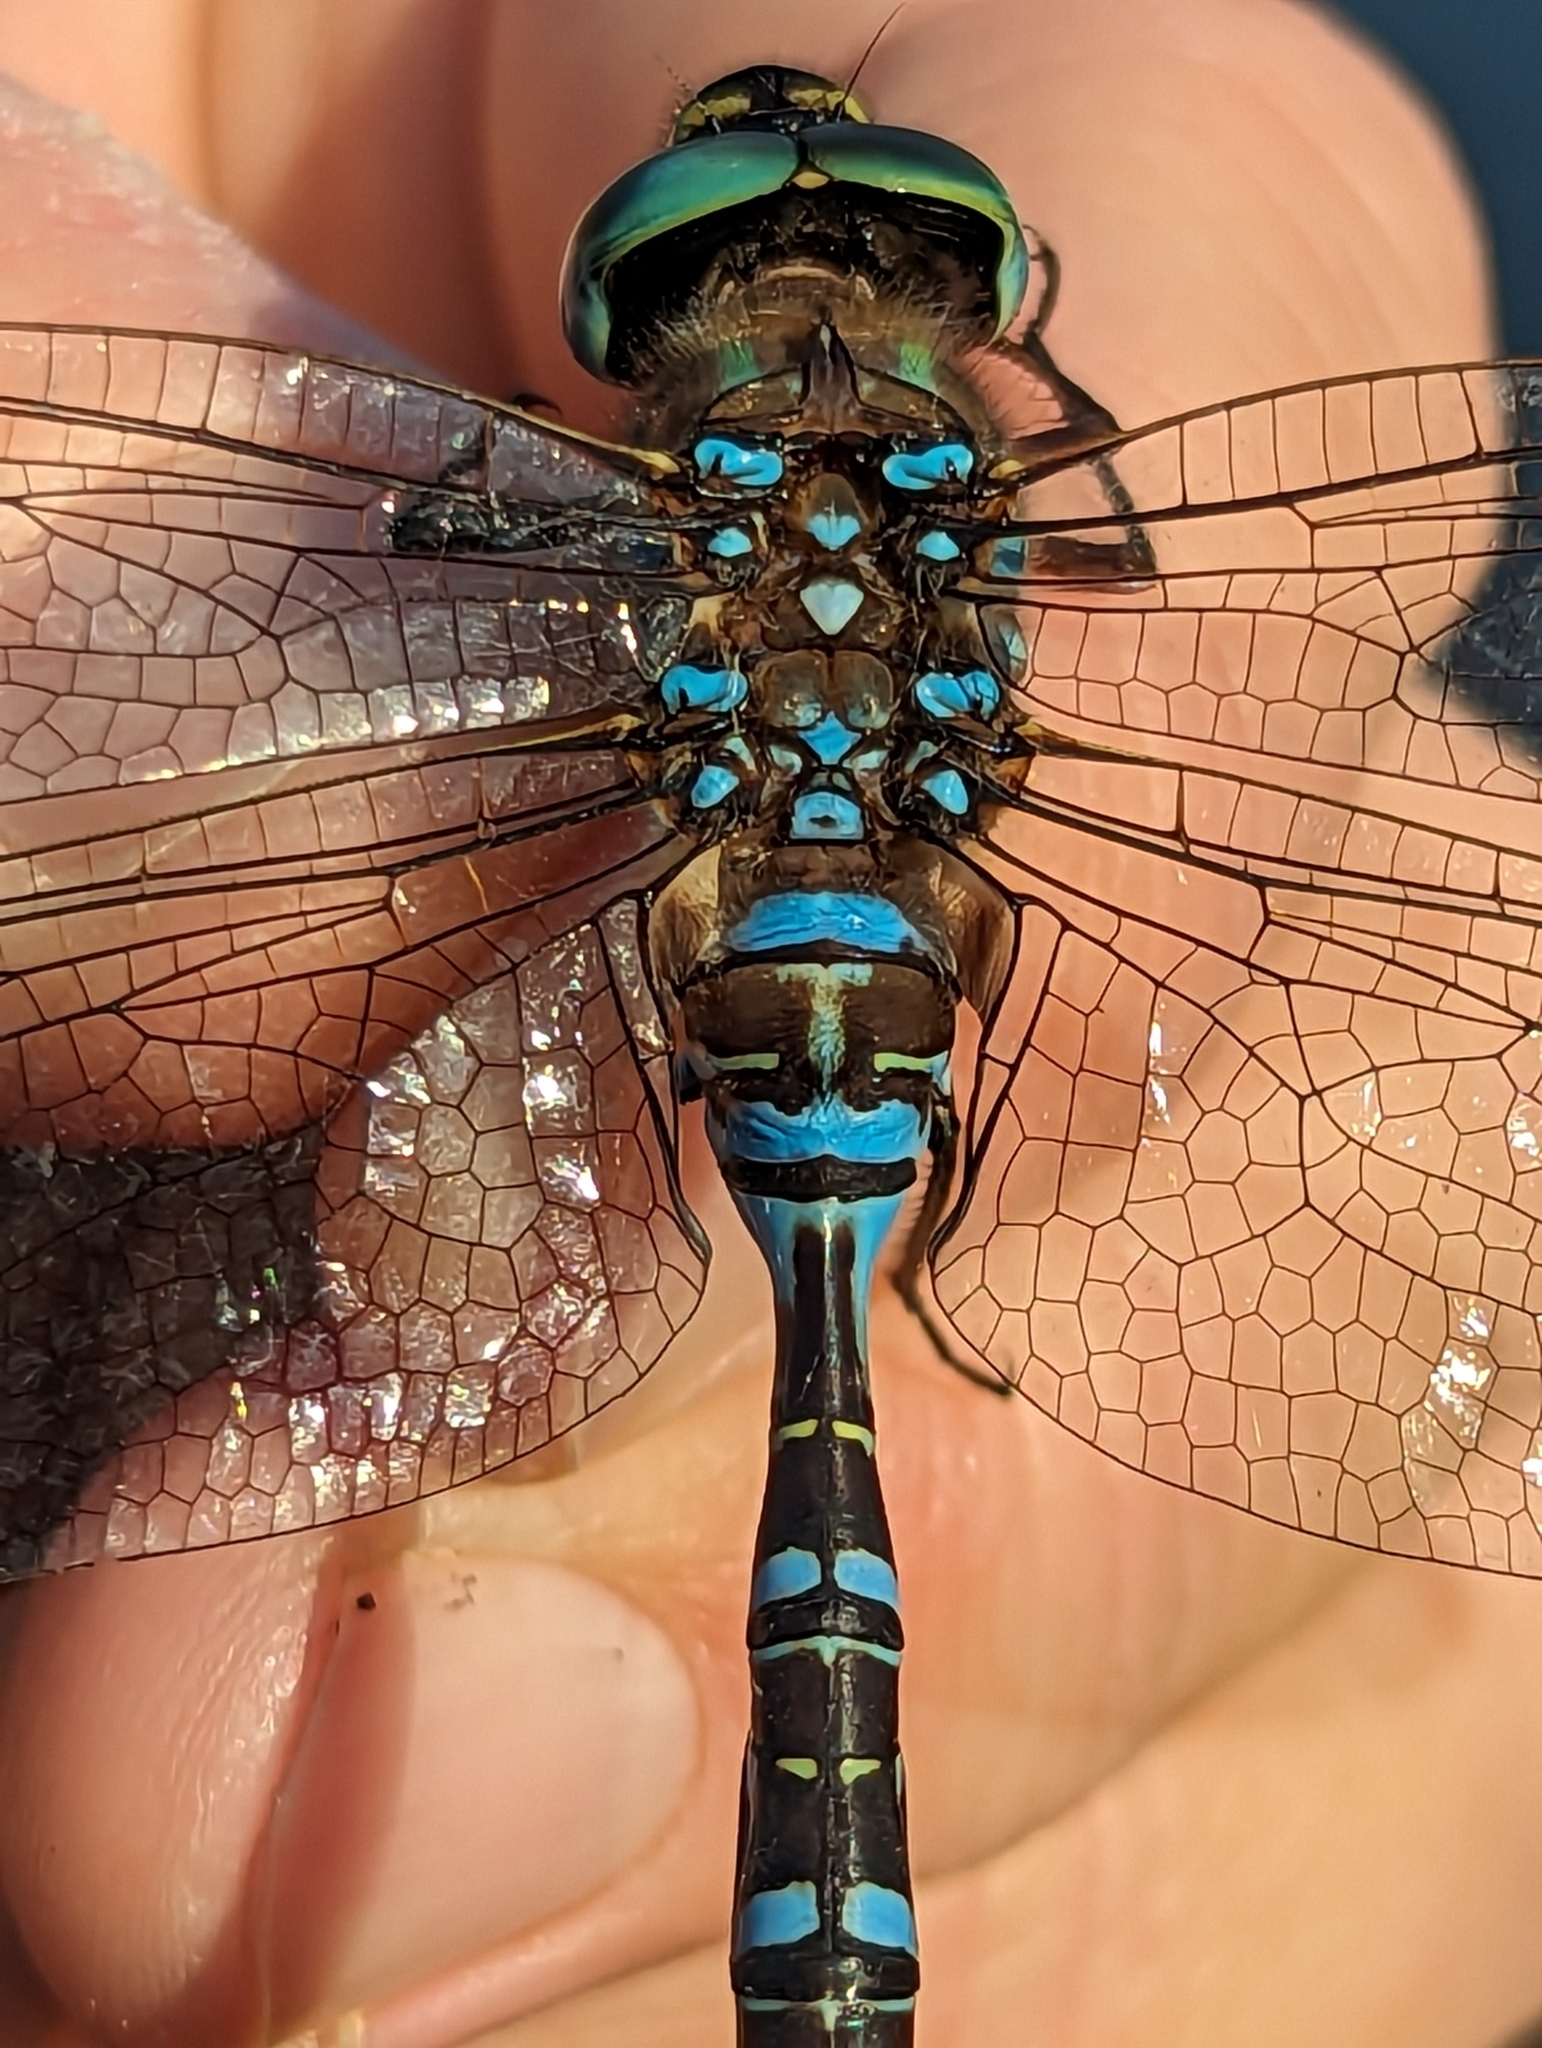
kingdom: Animalia
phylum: Arthropoda
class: Insecta
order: Odonata
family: Aeshnidae
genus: Aeshna
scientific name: Aeshna eremita
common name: Lake darner
